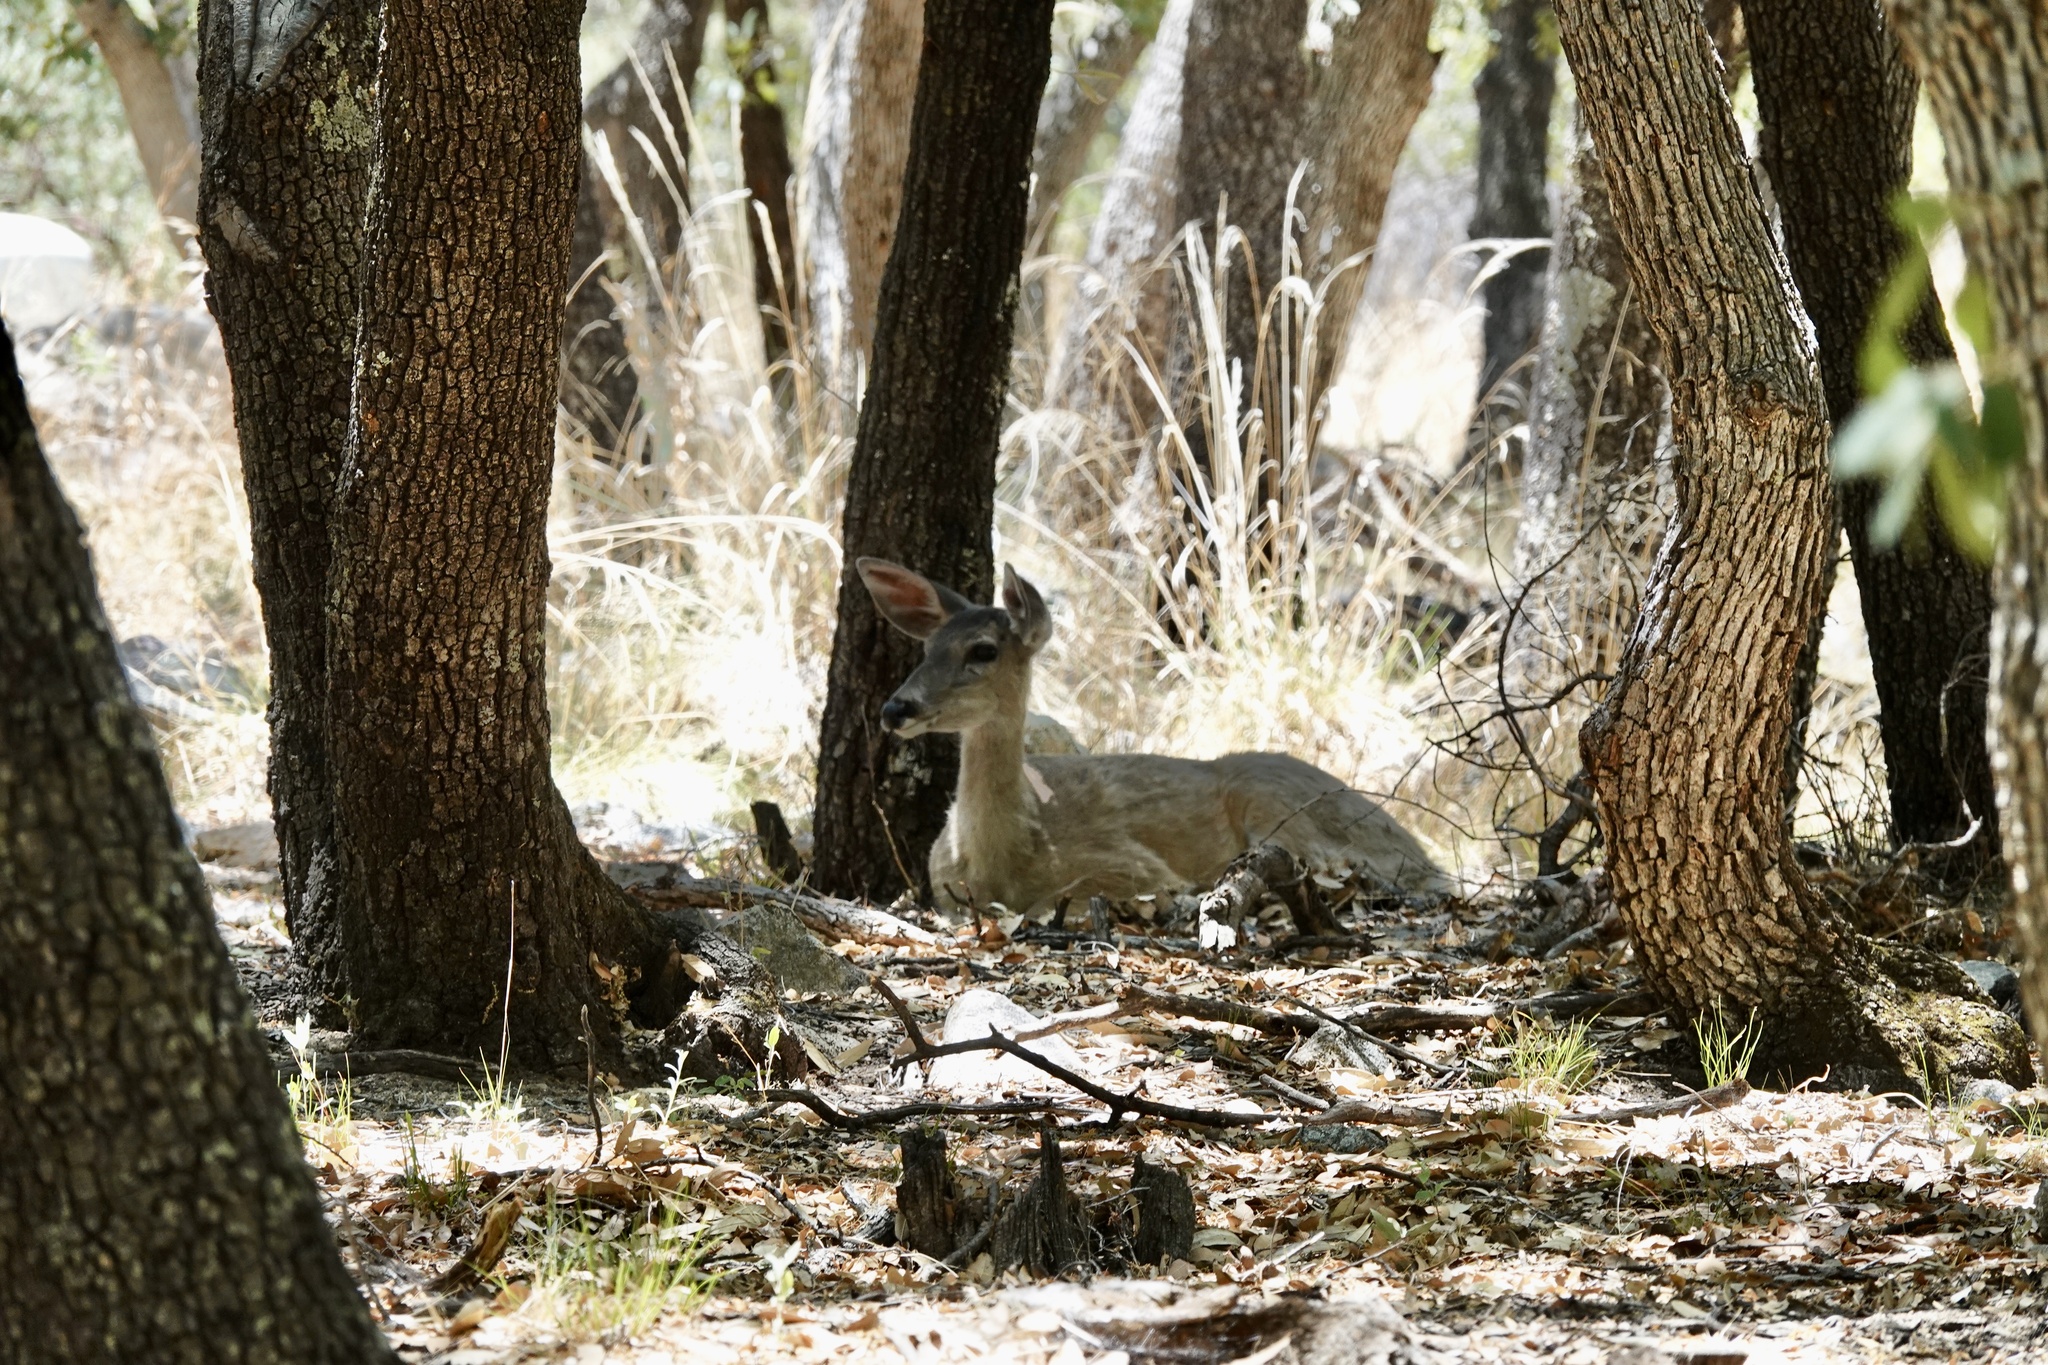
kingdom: Animalia
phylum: Chordata
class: Mammalia
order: Artiodactyla
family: Cervidae
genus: Odocoileus
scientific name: Odocoileus virginianus
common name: White-tailed deer
